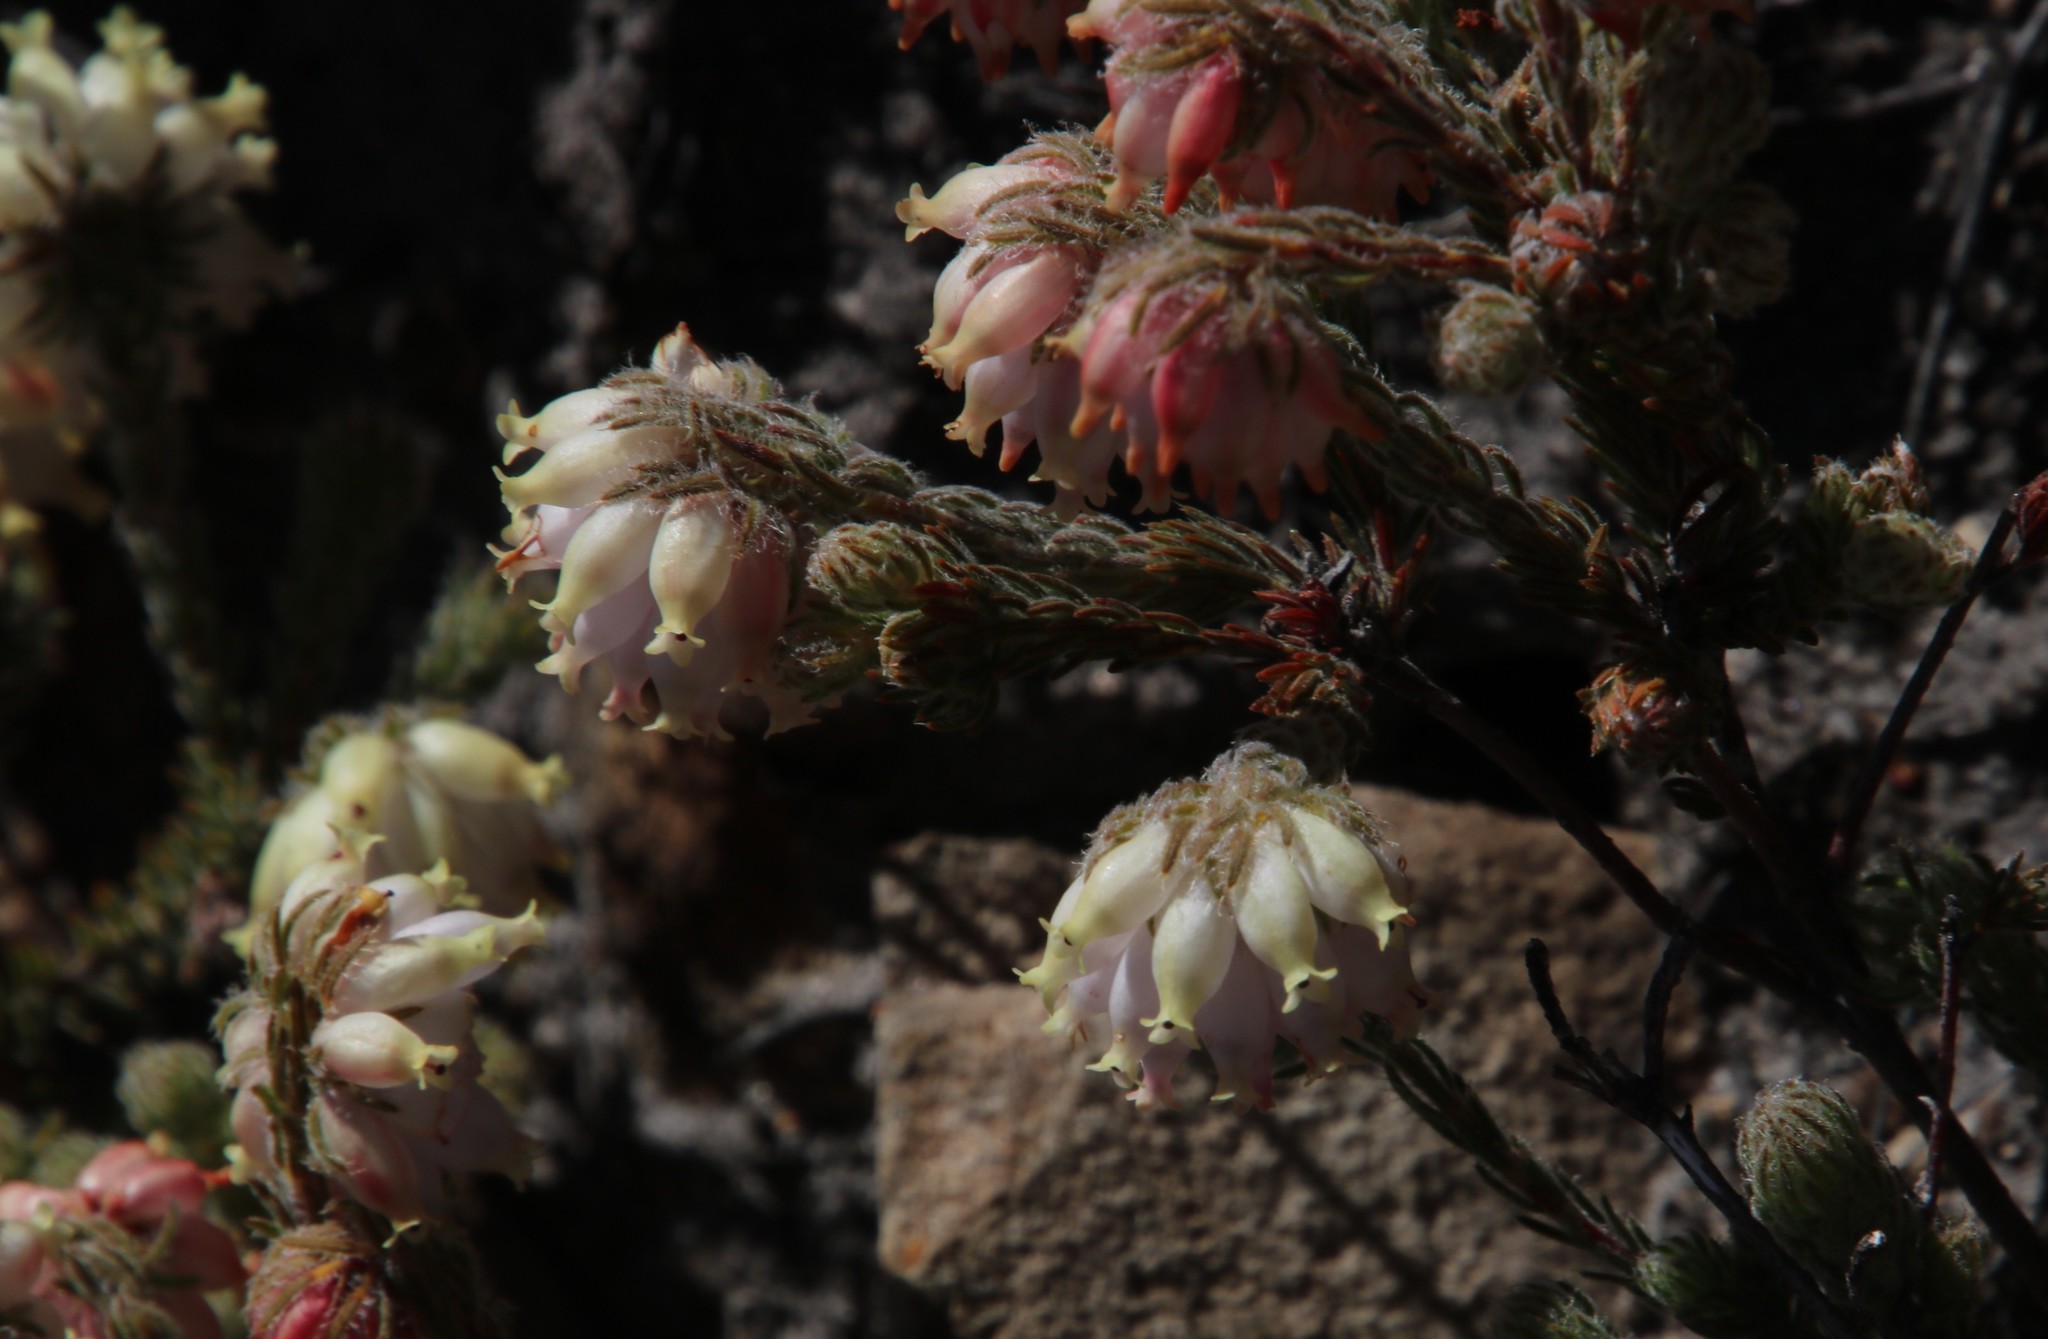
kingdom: Plantae
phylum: Tracheophyta
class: Magnoliopsida
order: Ericales
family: Ericaceae
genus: Erica
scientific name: Erica maderi
